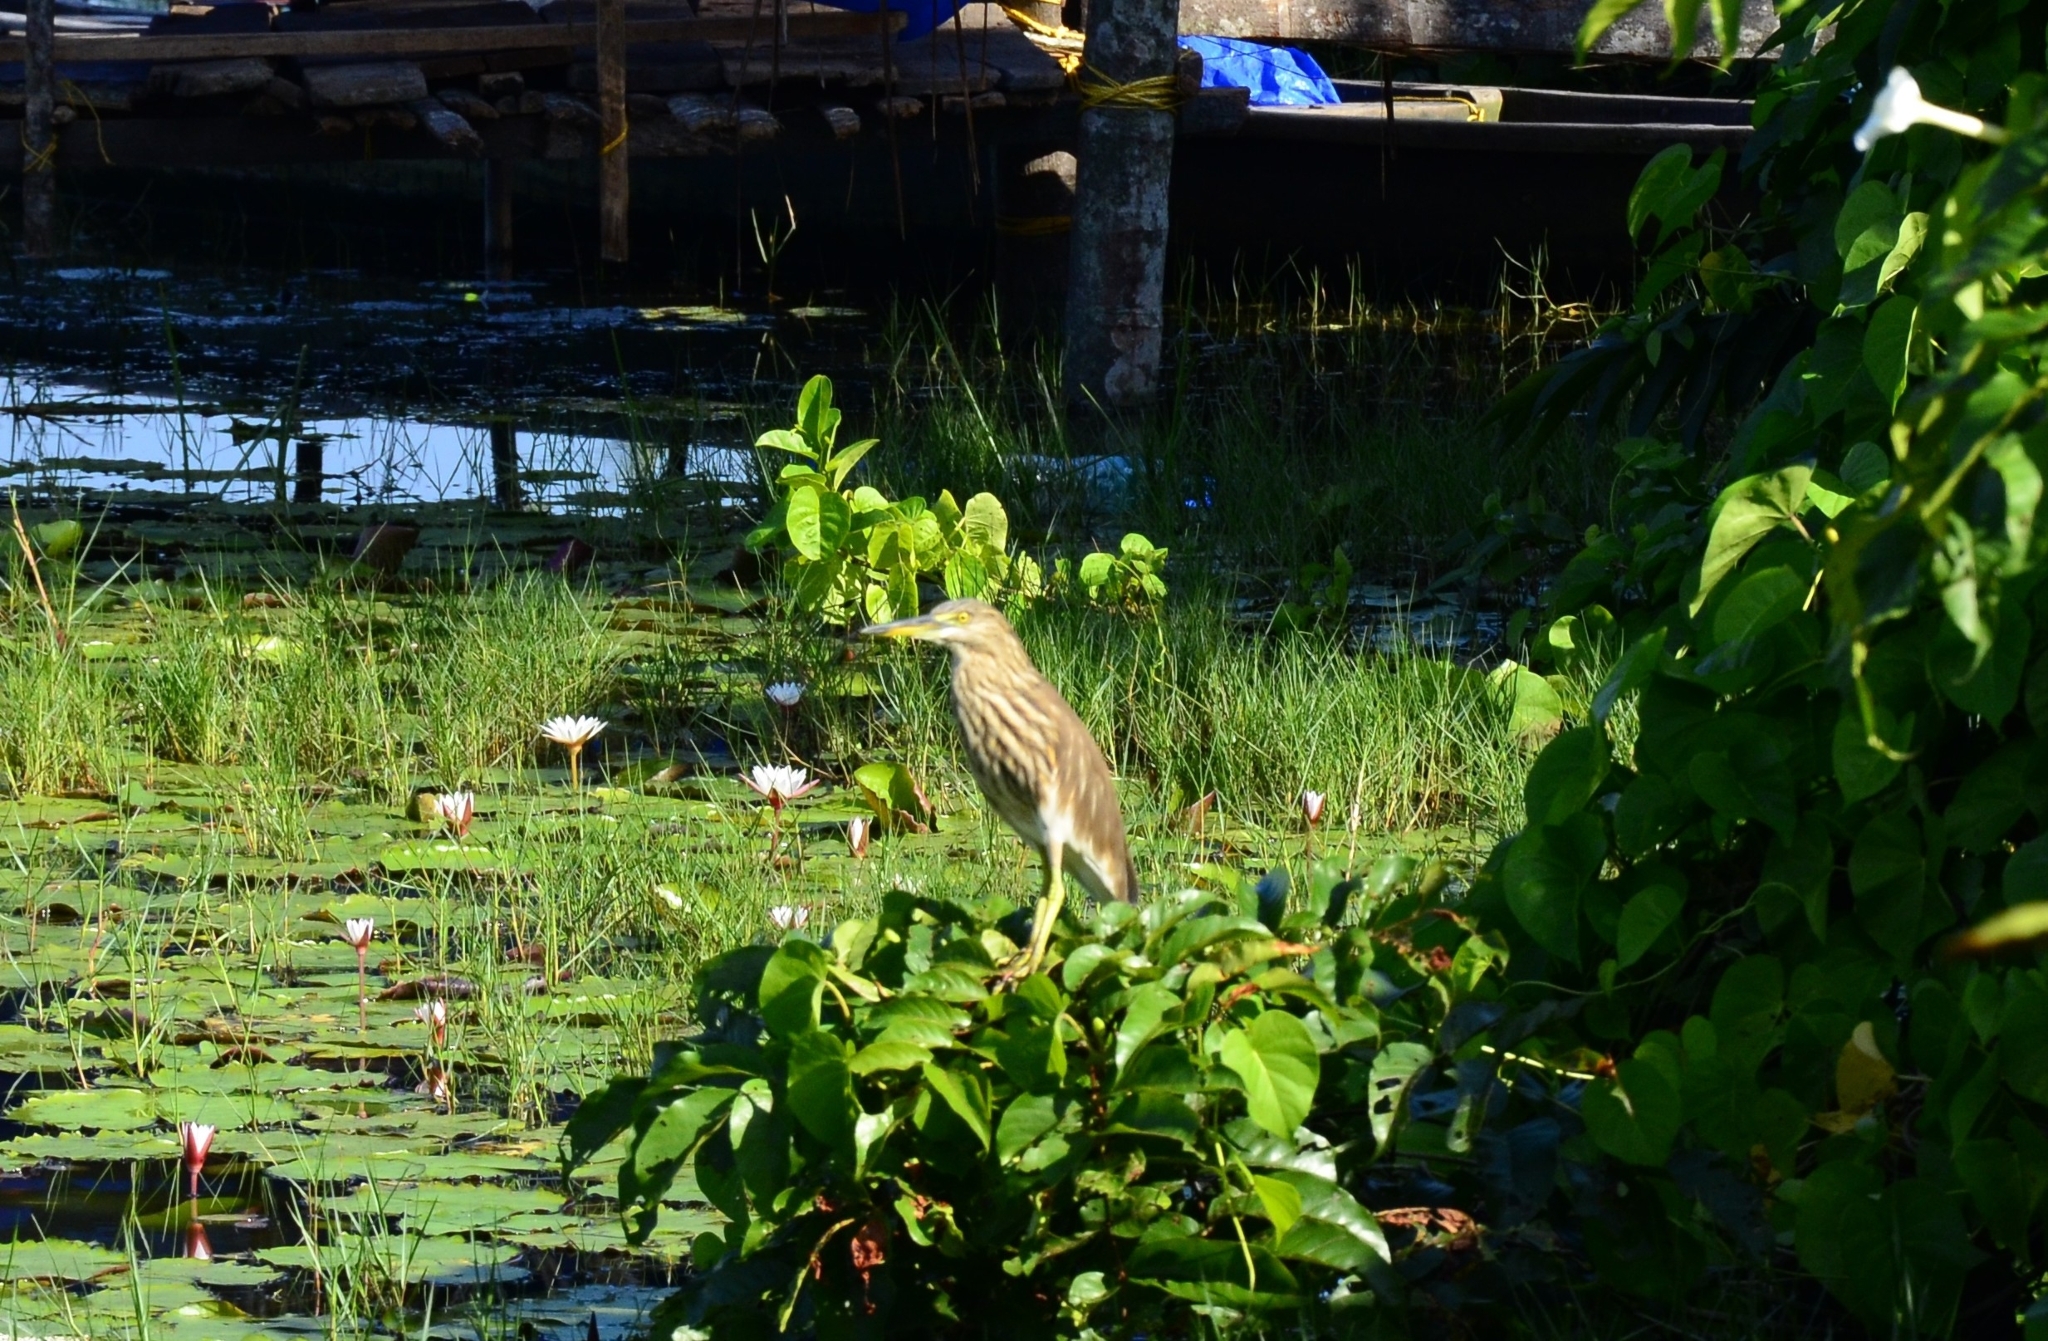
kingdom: Animalia
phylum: Chordata
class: Aves
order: Pelecaniformes
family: Ardeidae
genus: Ardeola
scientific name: Ardeola grayii
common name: Indian pond heron
